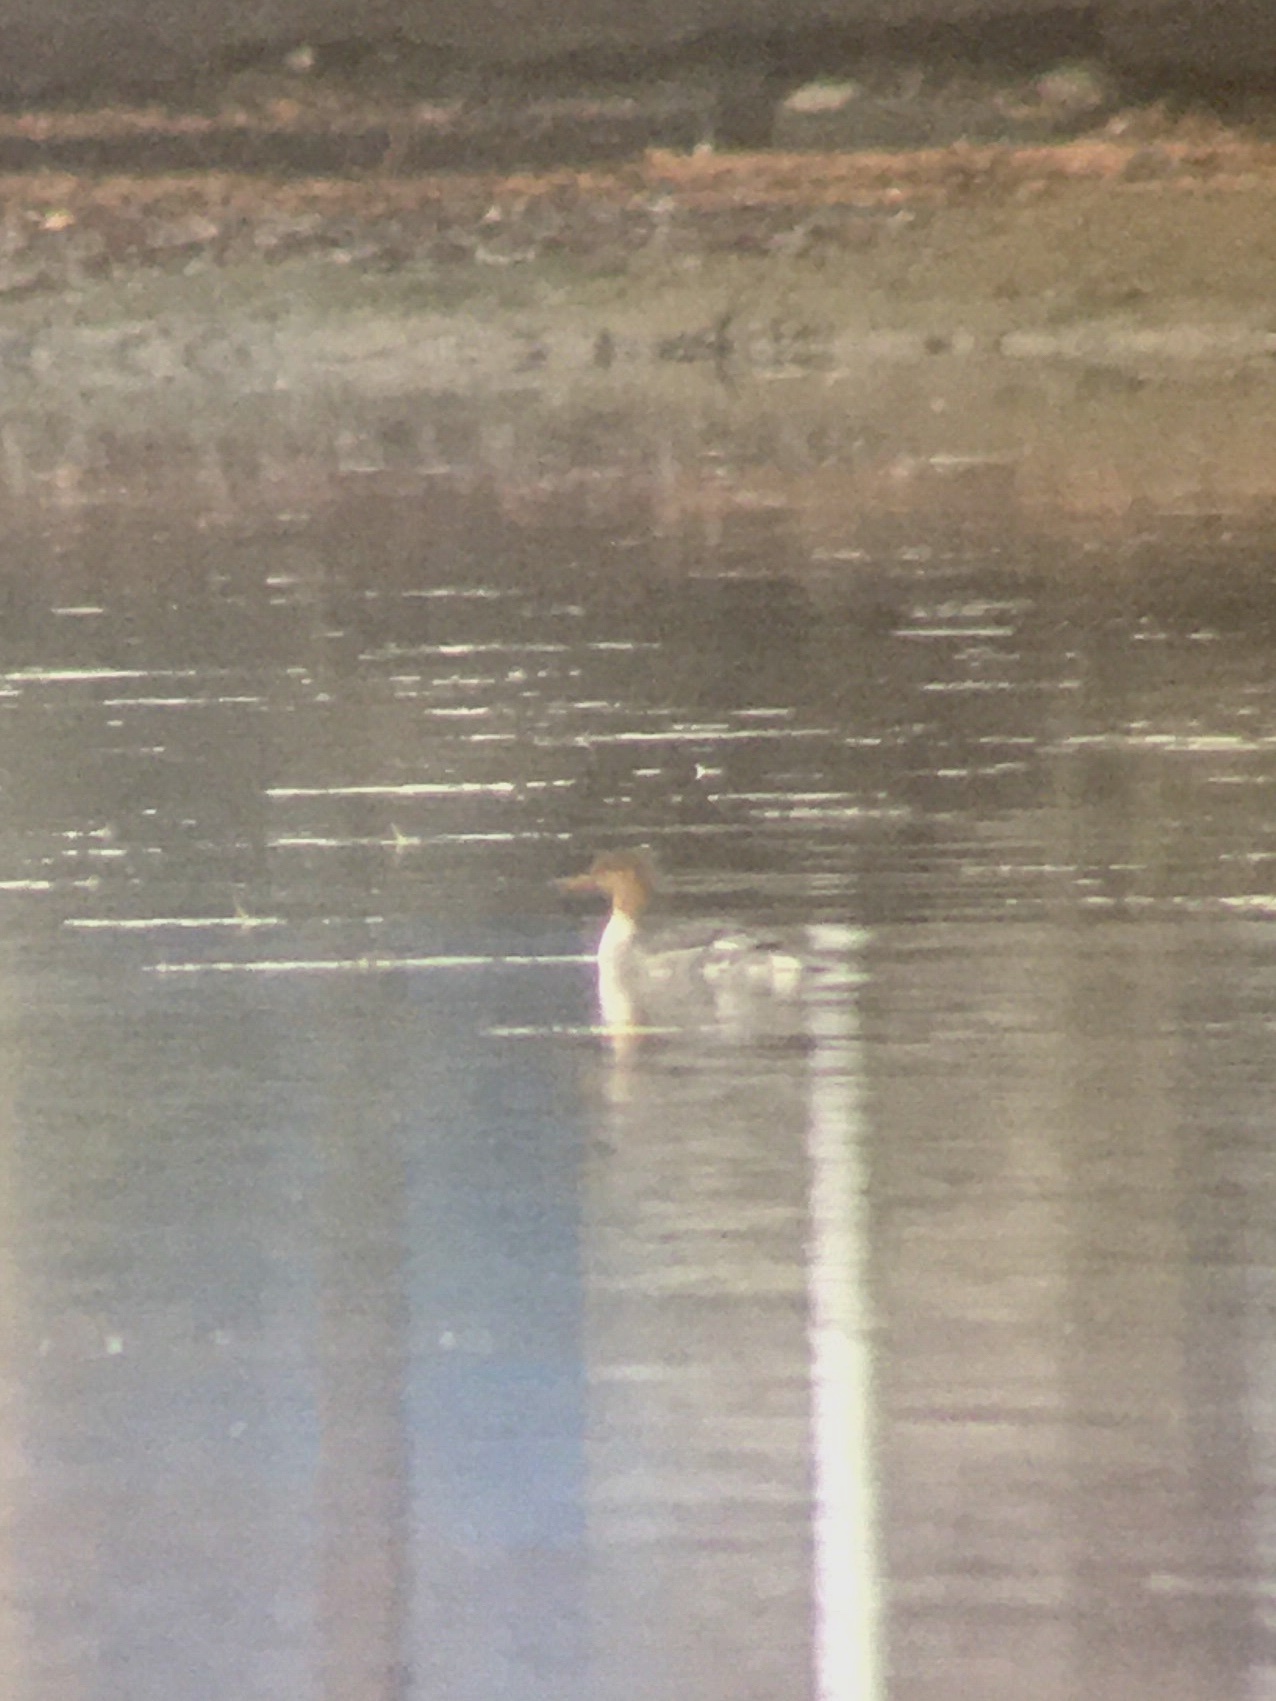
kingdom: Animalia
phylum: Chordata
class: Aves
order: Anseriformes
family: Anatidae
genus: Mergus
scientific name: Mergus serrator
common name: Red-breasted merganser
